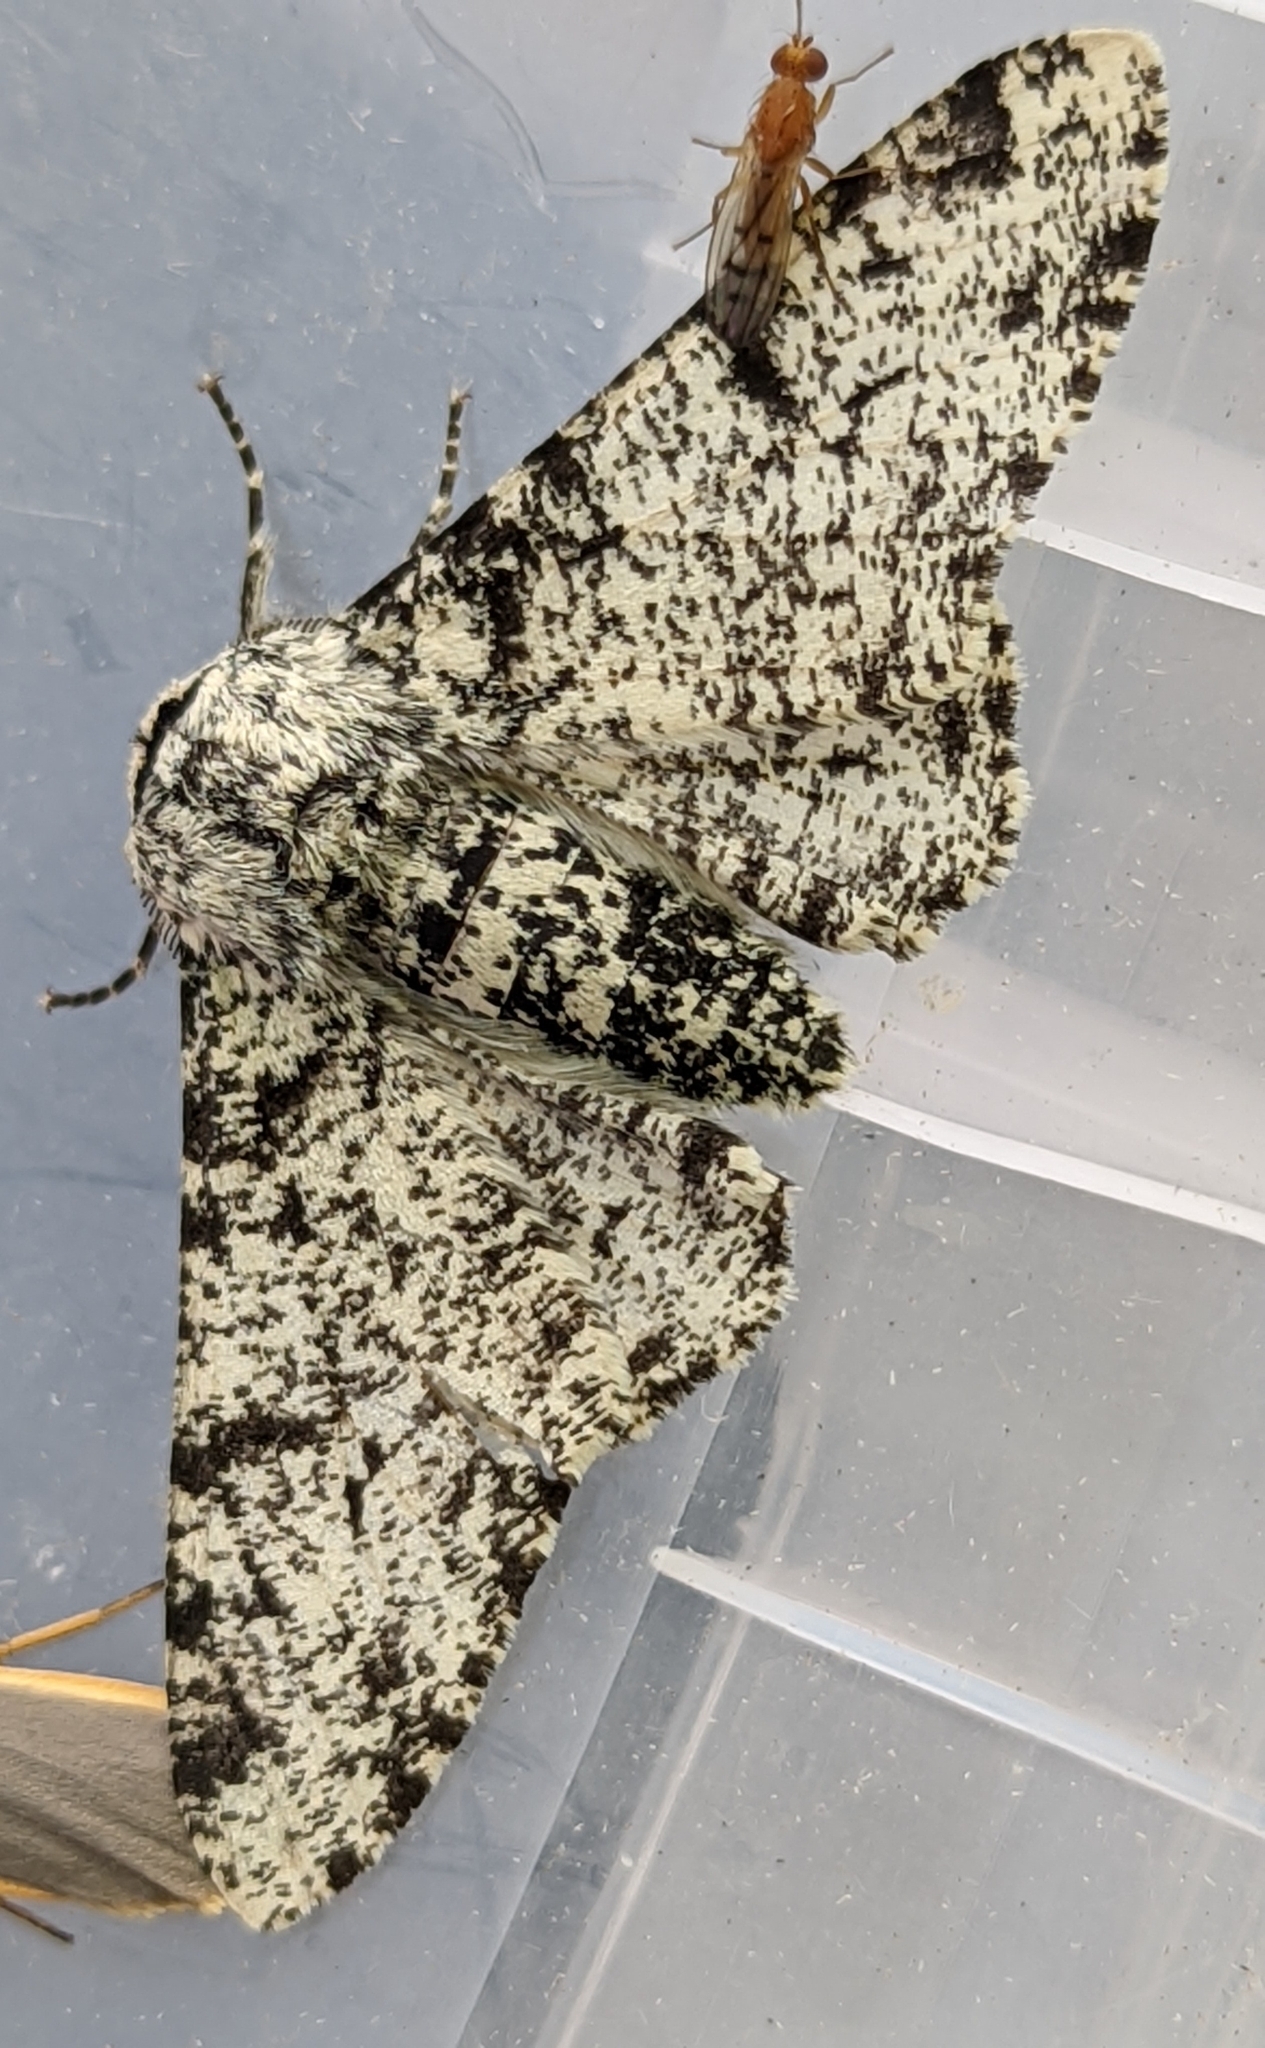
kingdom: Animalia
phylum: Arthropoda
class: Insecta
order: Lepidoptera
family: Geometridae
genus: Biston
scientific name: Biston betularia
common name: Peppered moth
